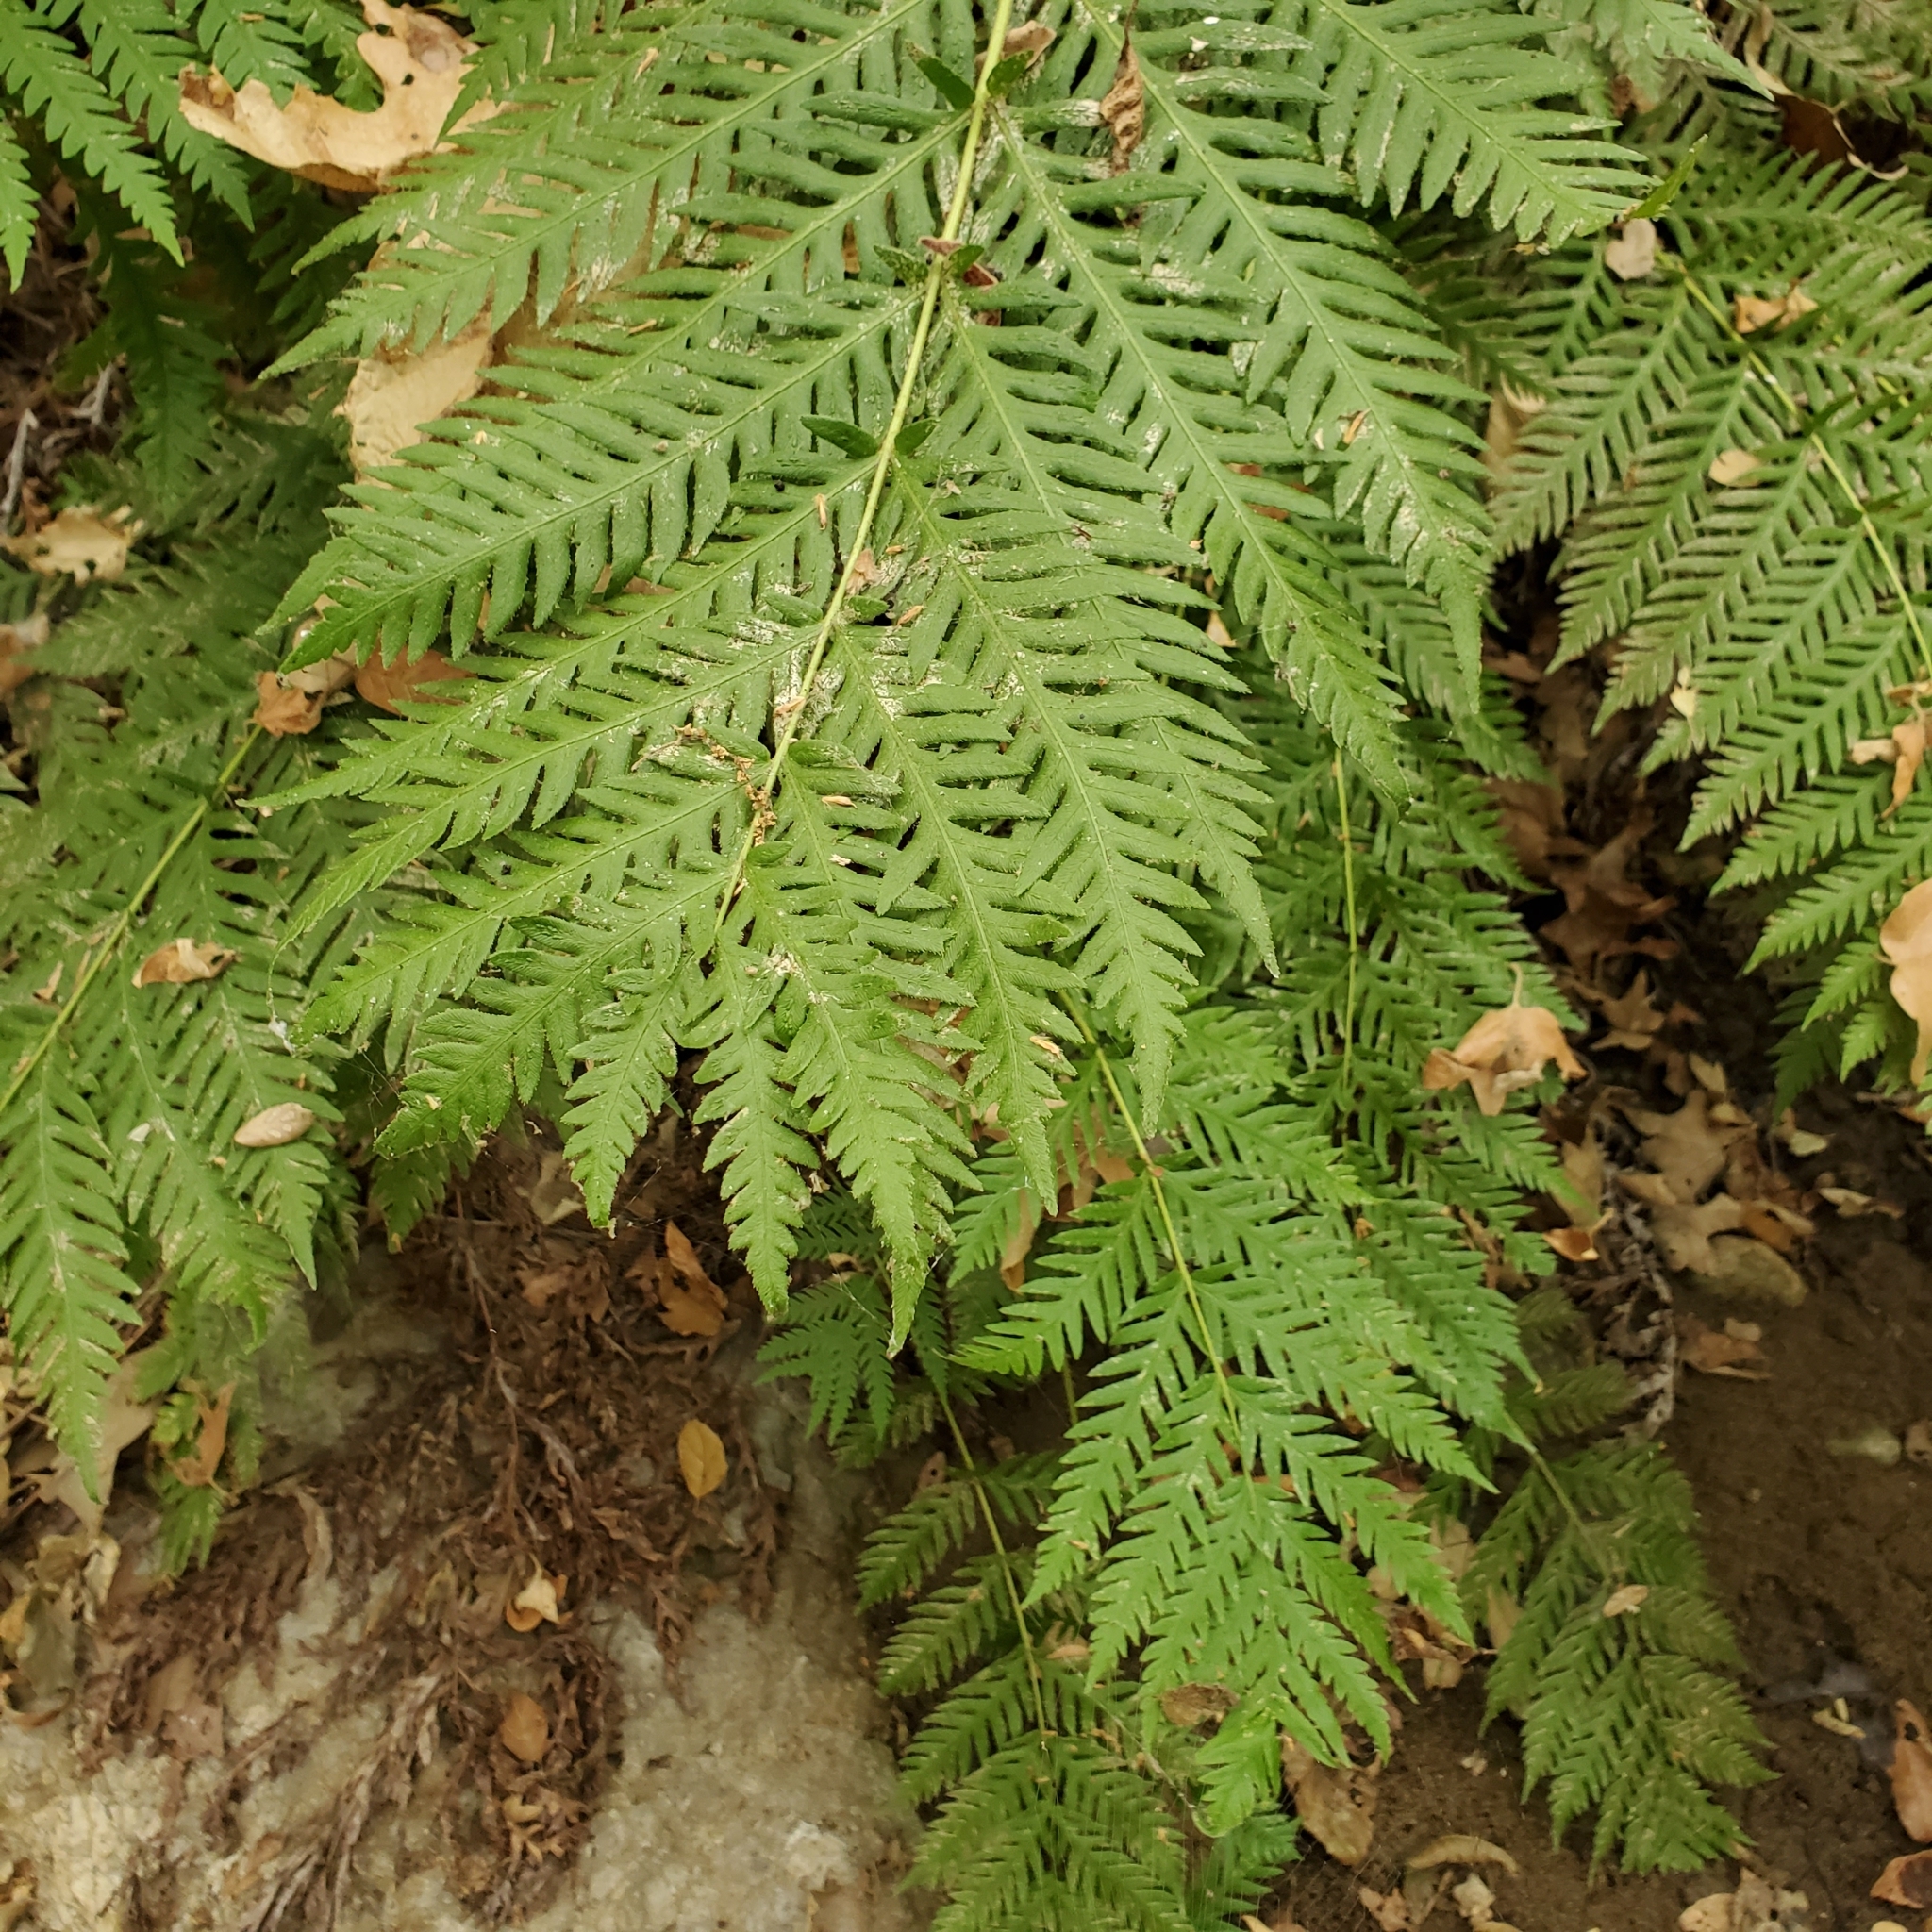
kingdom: Plantae
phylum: Tracheophyta
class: Polypodiopsida
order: Polypodiales
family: Blechnaceae
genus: Woodwardia
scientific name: Woodwardia fimbriata
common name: Giant chain fern
